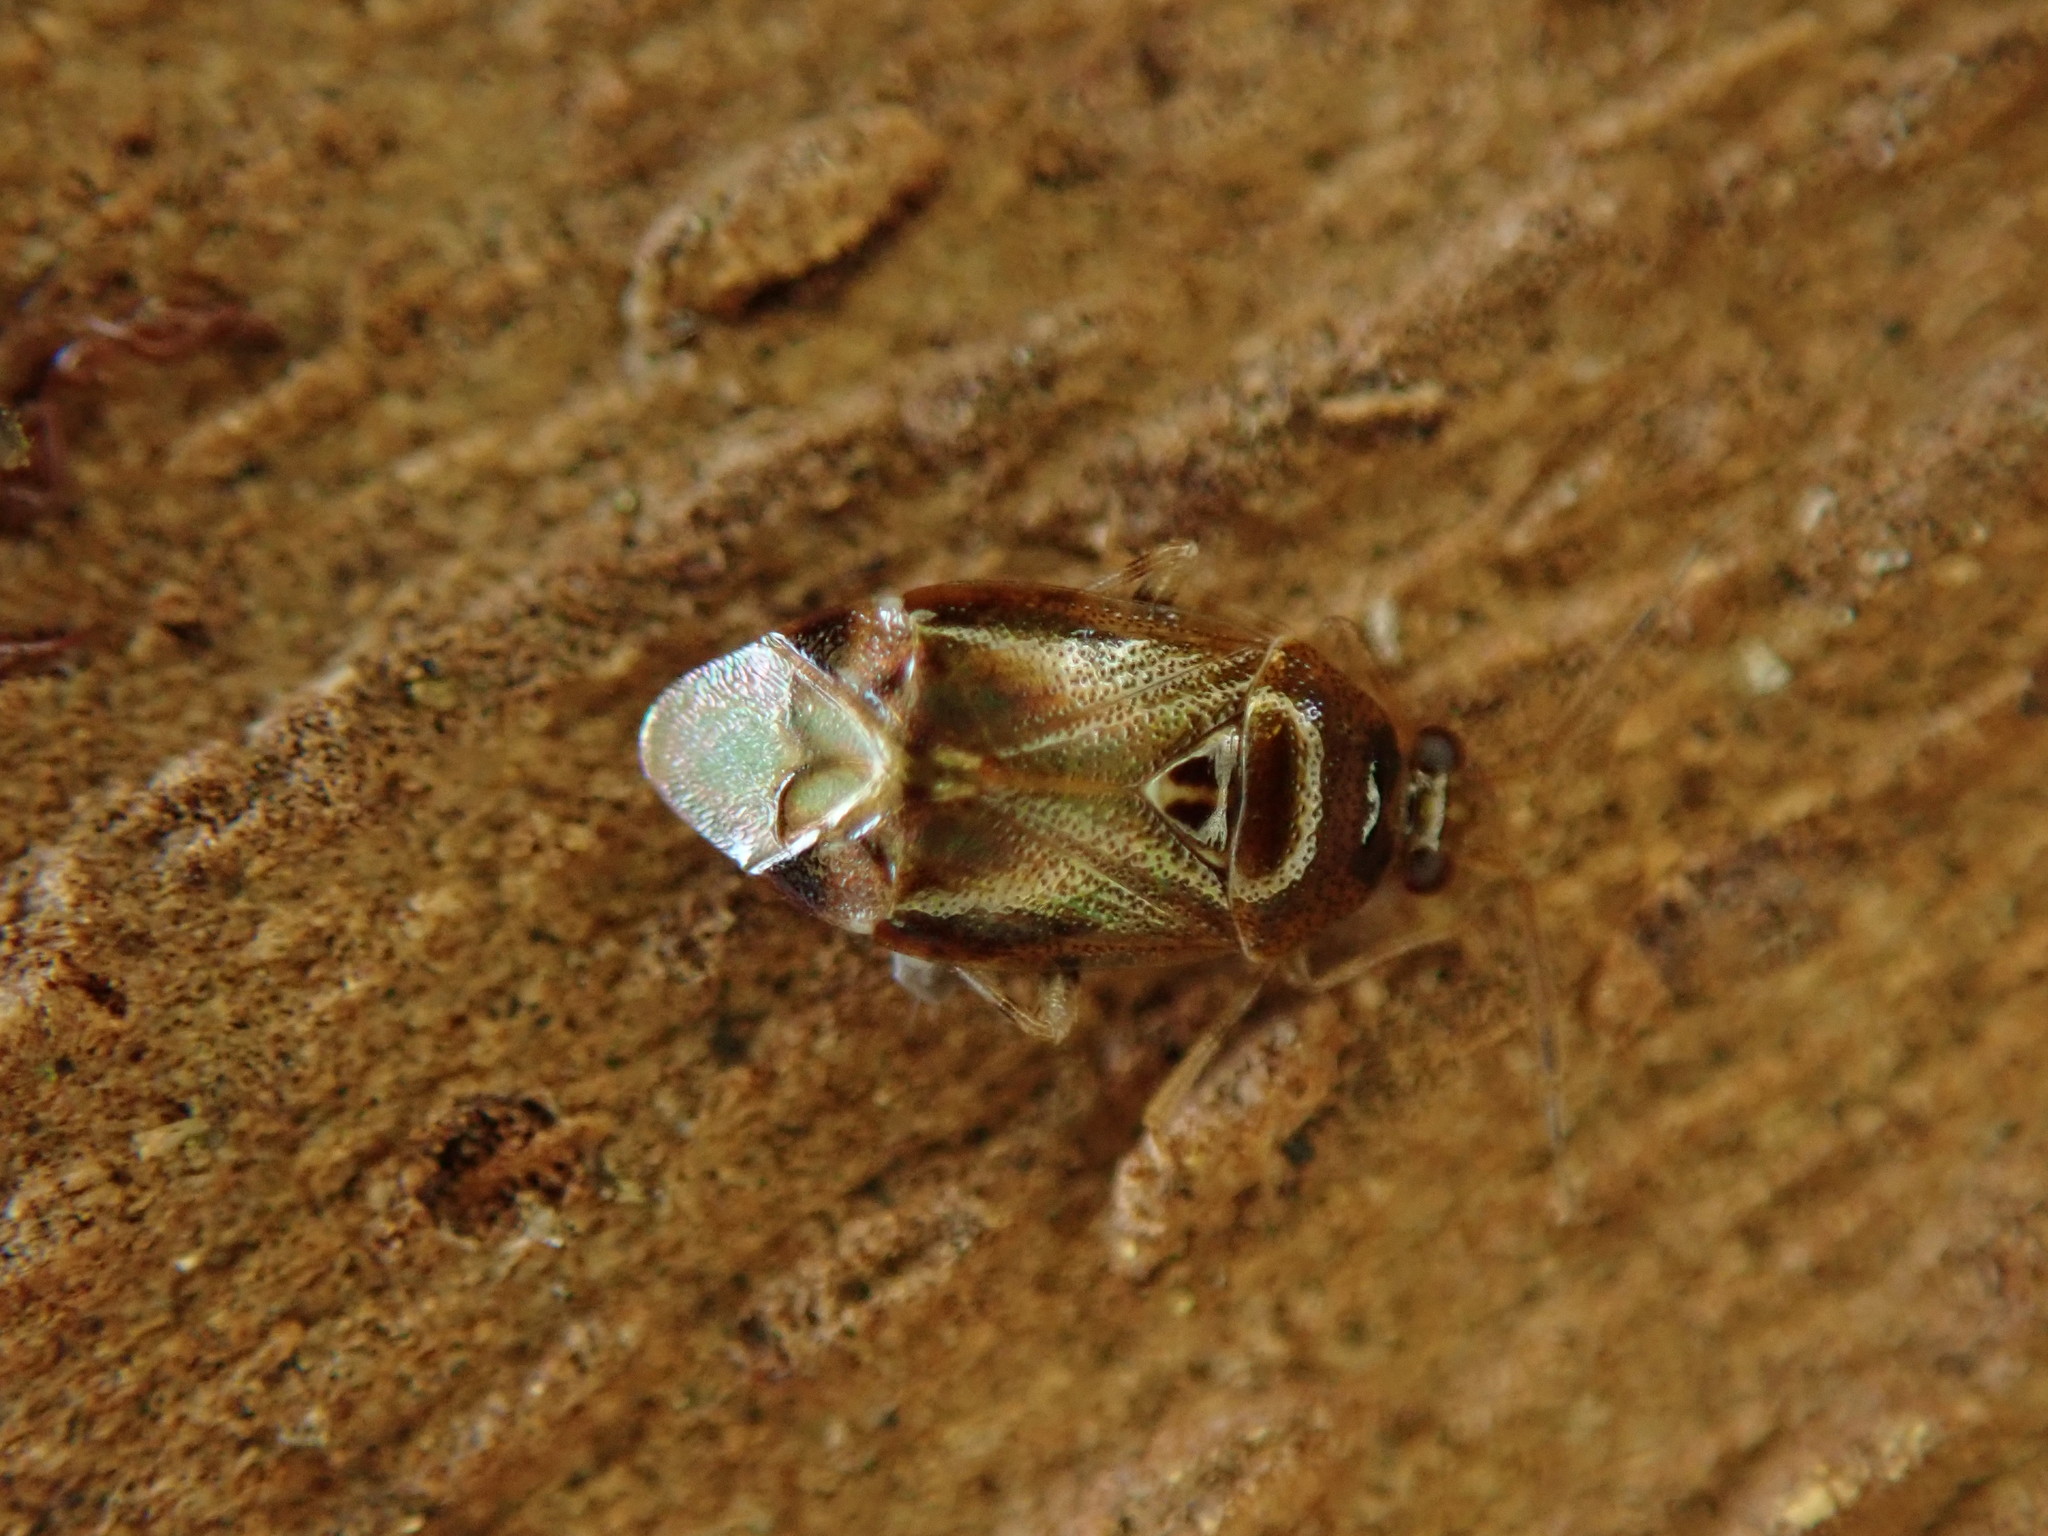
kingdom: Animalia
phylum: Arthropoda
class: Insecta
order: Hemiptera
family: Miridae
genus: Deraeocoris
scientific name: Deraeocoris lutescens
